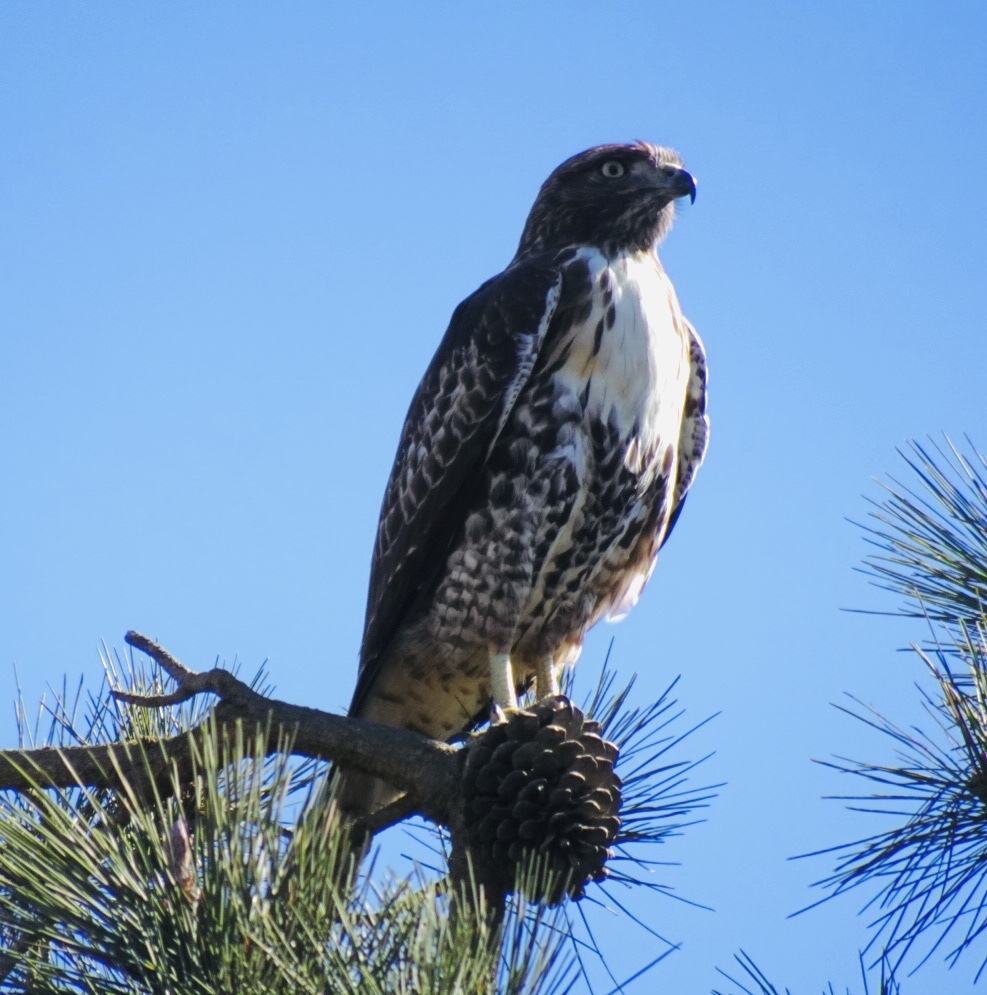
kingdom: Animalia
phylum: Chordata
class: Aves
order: Accipitriformes
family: Accipitridae
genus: Buteo
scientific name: Buteo jamaicensis
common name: Red-tailed hawk
